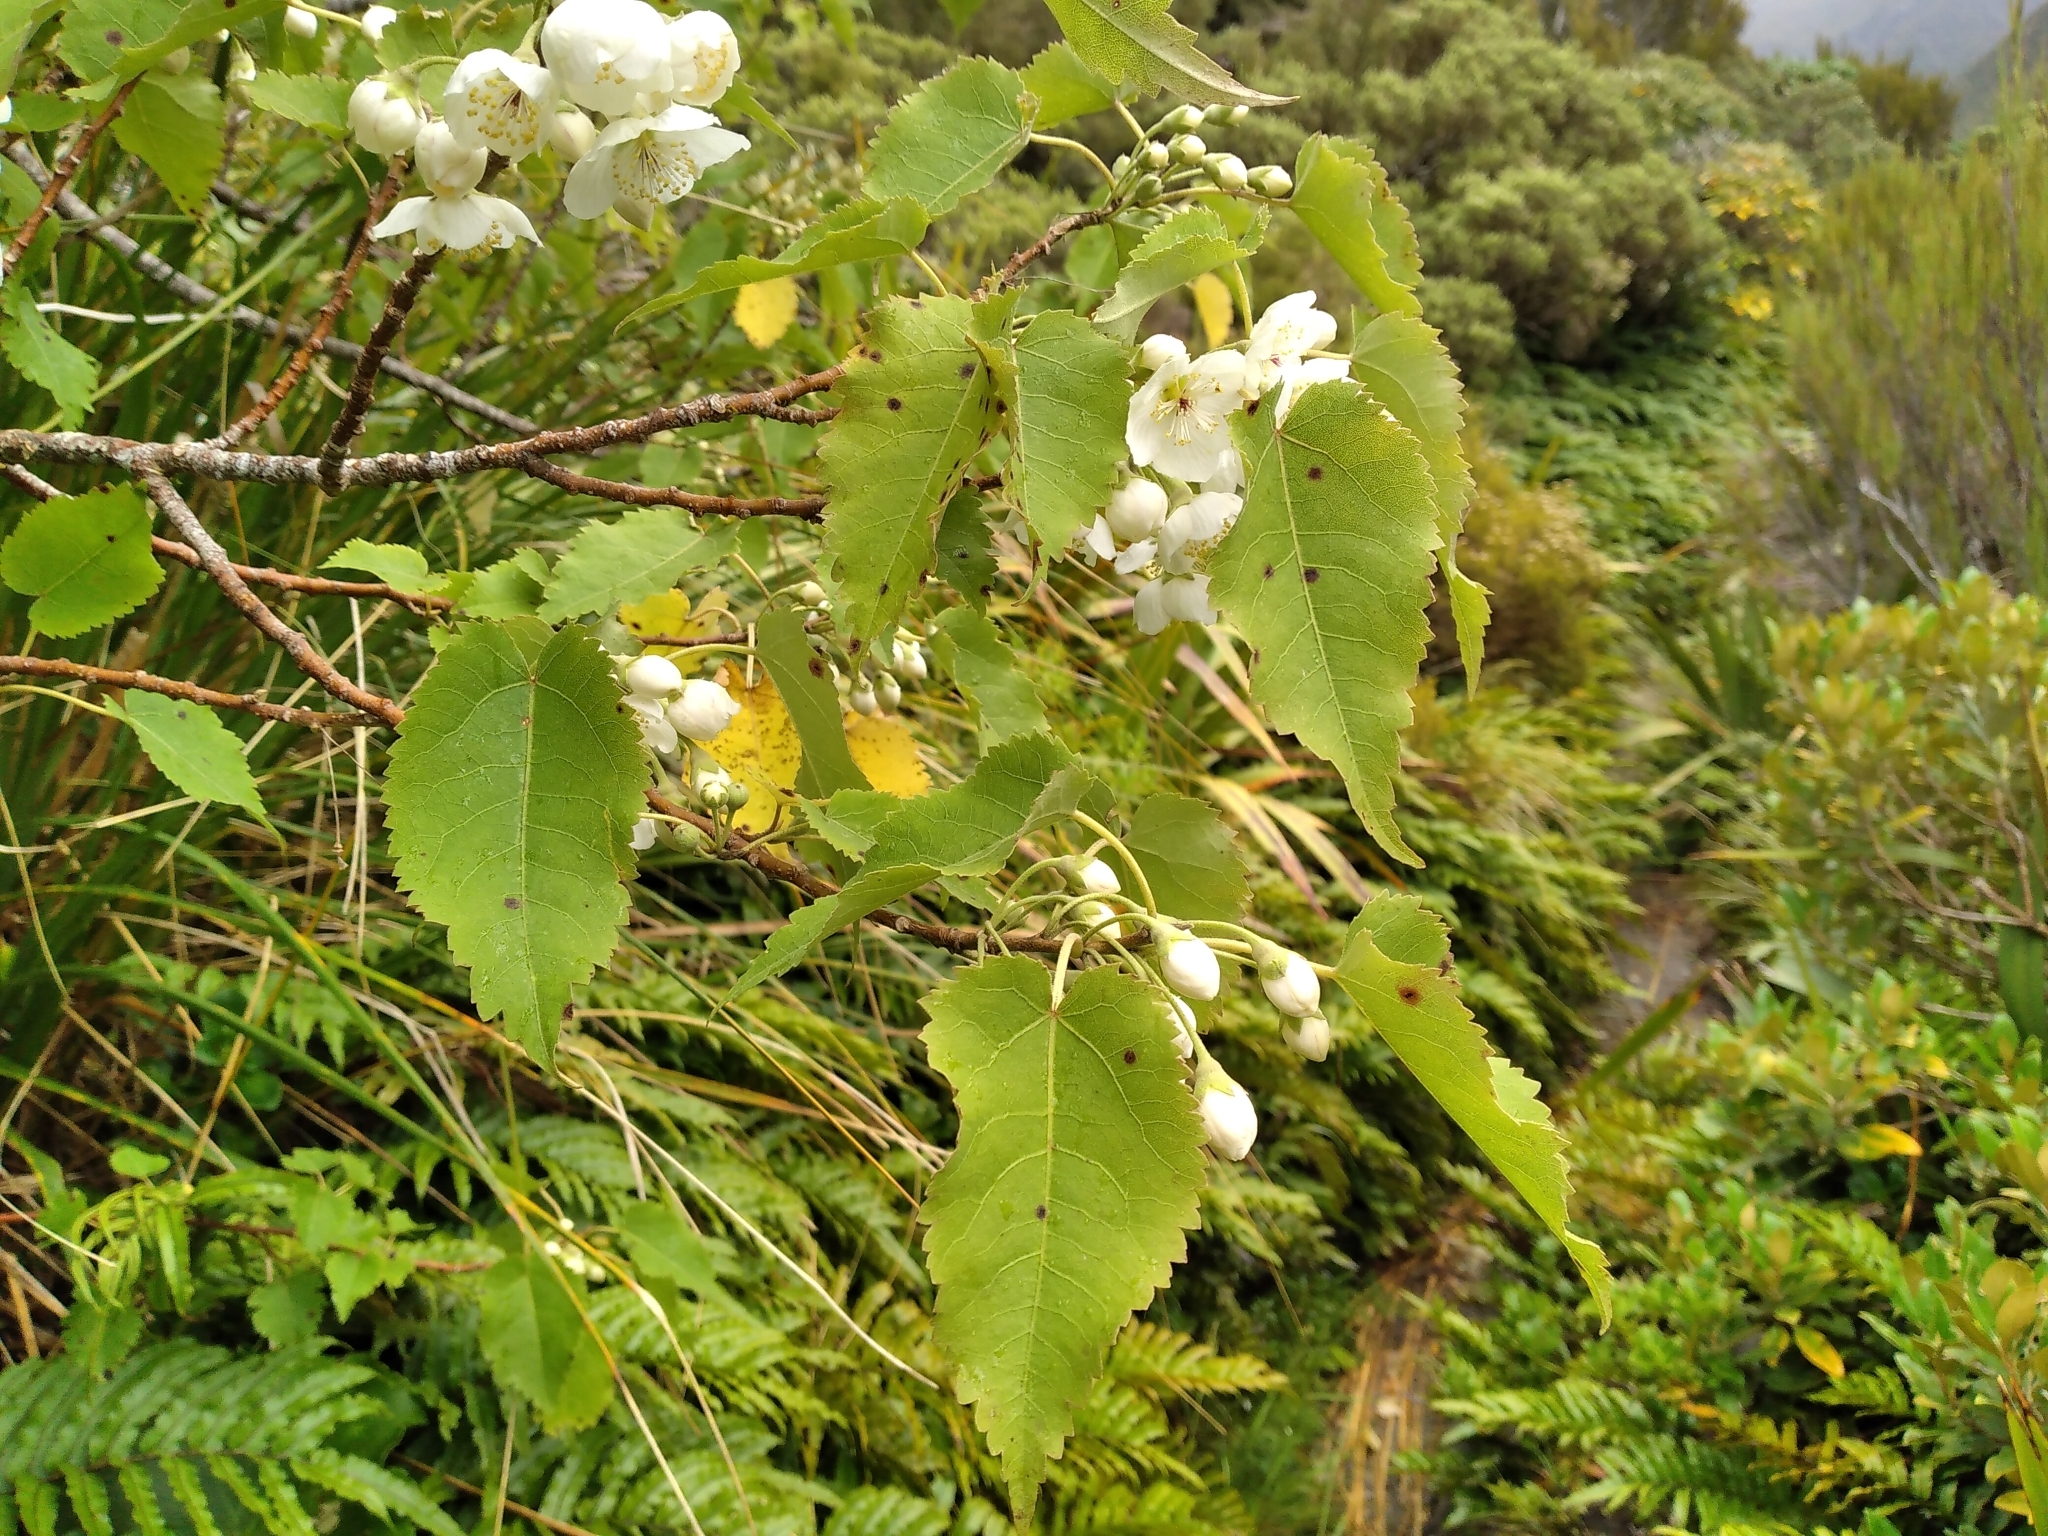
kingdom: Plantae
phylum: Tracheophyta
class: Magnoliopsida
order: Malvales
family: Malvaceae
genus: Hoheria
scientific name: Hoheria glabrata
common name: Mountain-ribbon
